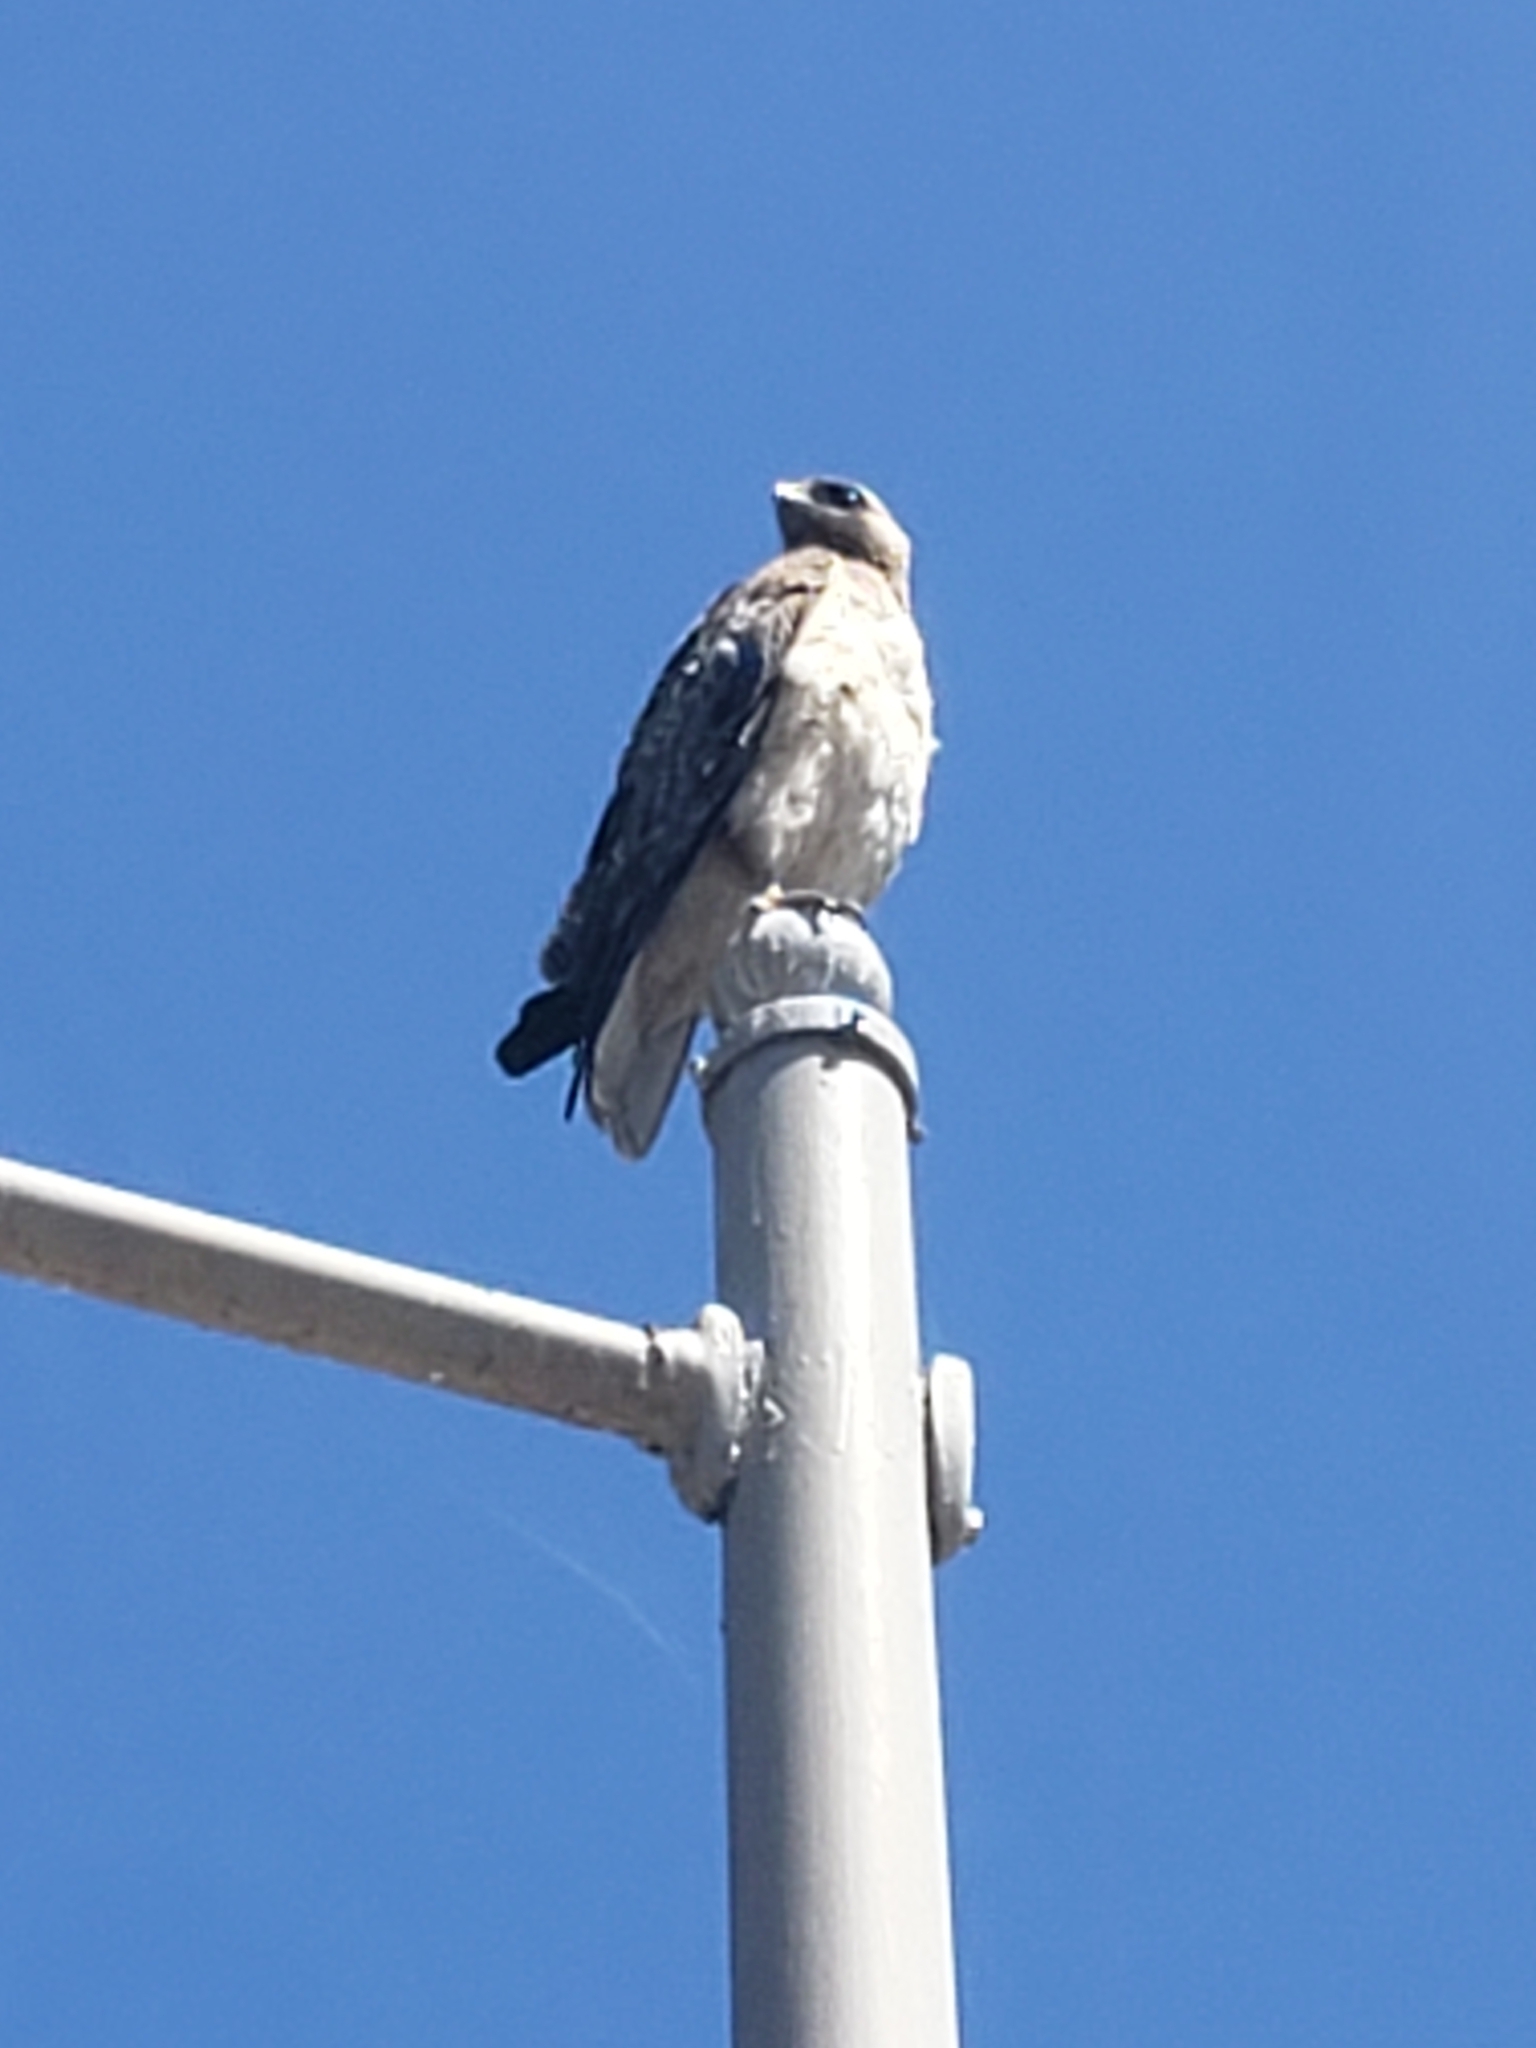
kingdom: Animalia
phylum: Chordata
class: Aves
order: Accipitriformes
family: Accipitridae
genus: Buteo
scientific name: Buteo jamaicensis
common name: Red-tailed hawk
